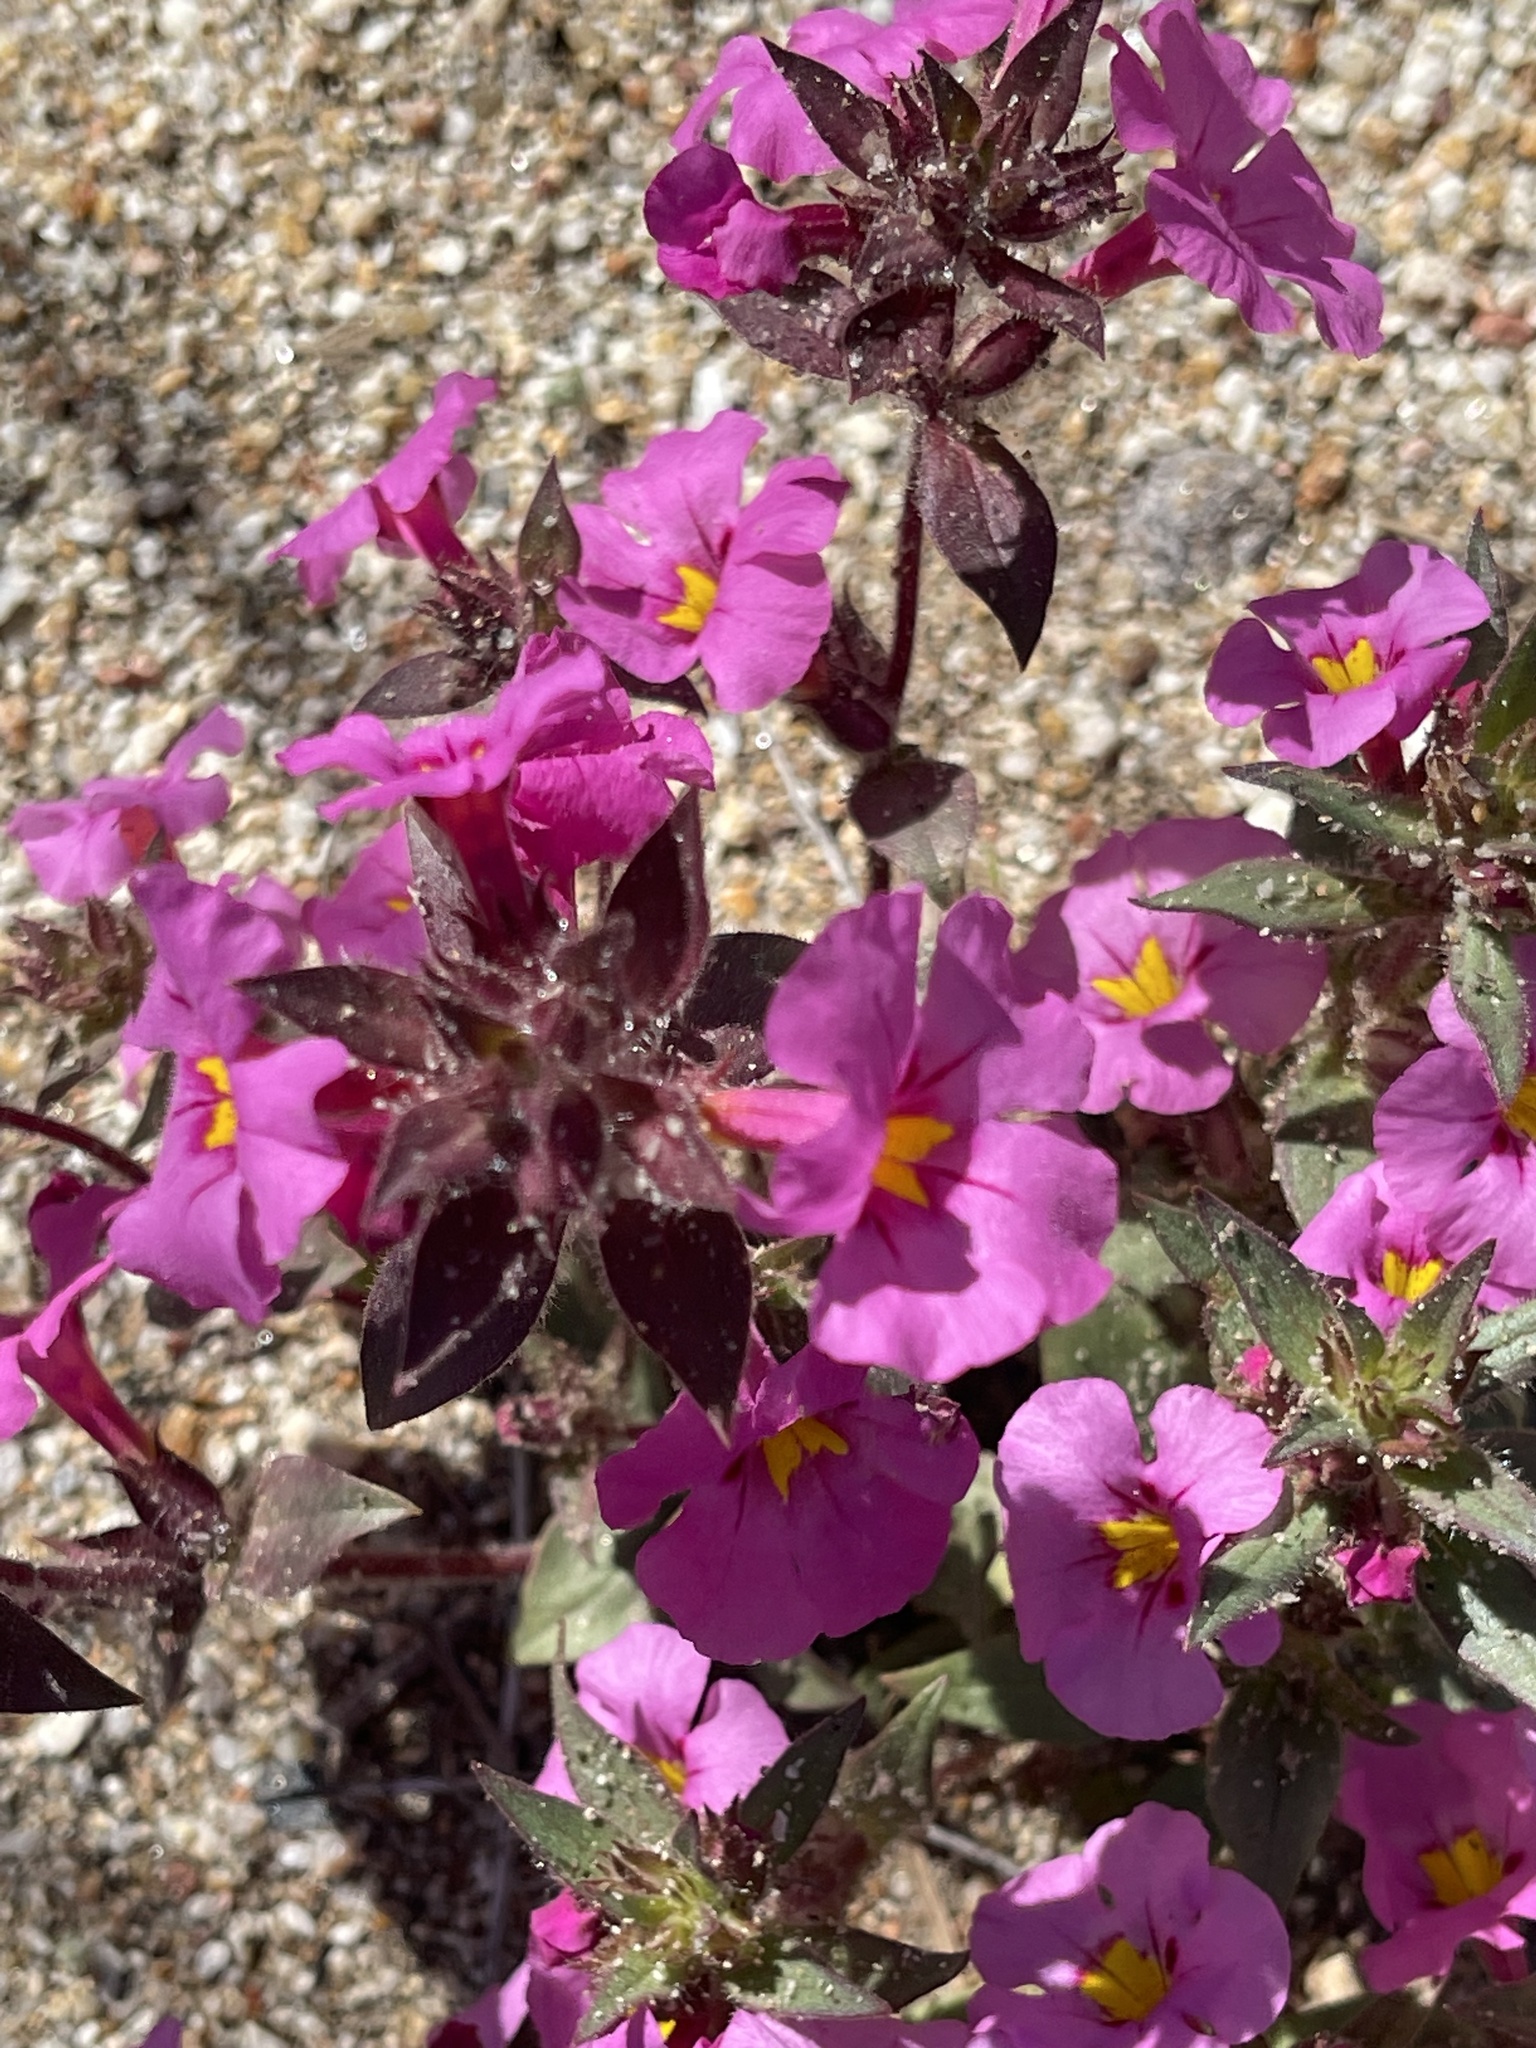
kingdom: Plantae
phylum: Tracheophyta
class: Magnoliopsida
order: Lamiales
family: Phrymaceae
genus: Diplacus
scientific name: Diplacus bigelovii
